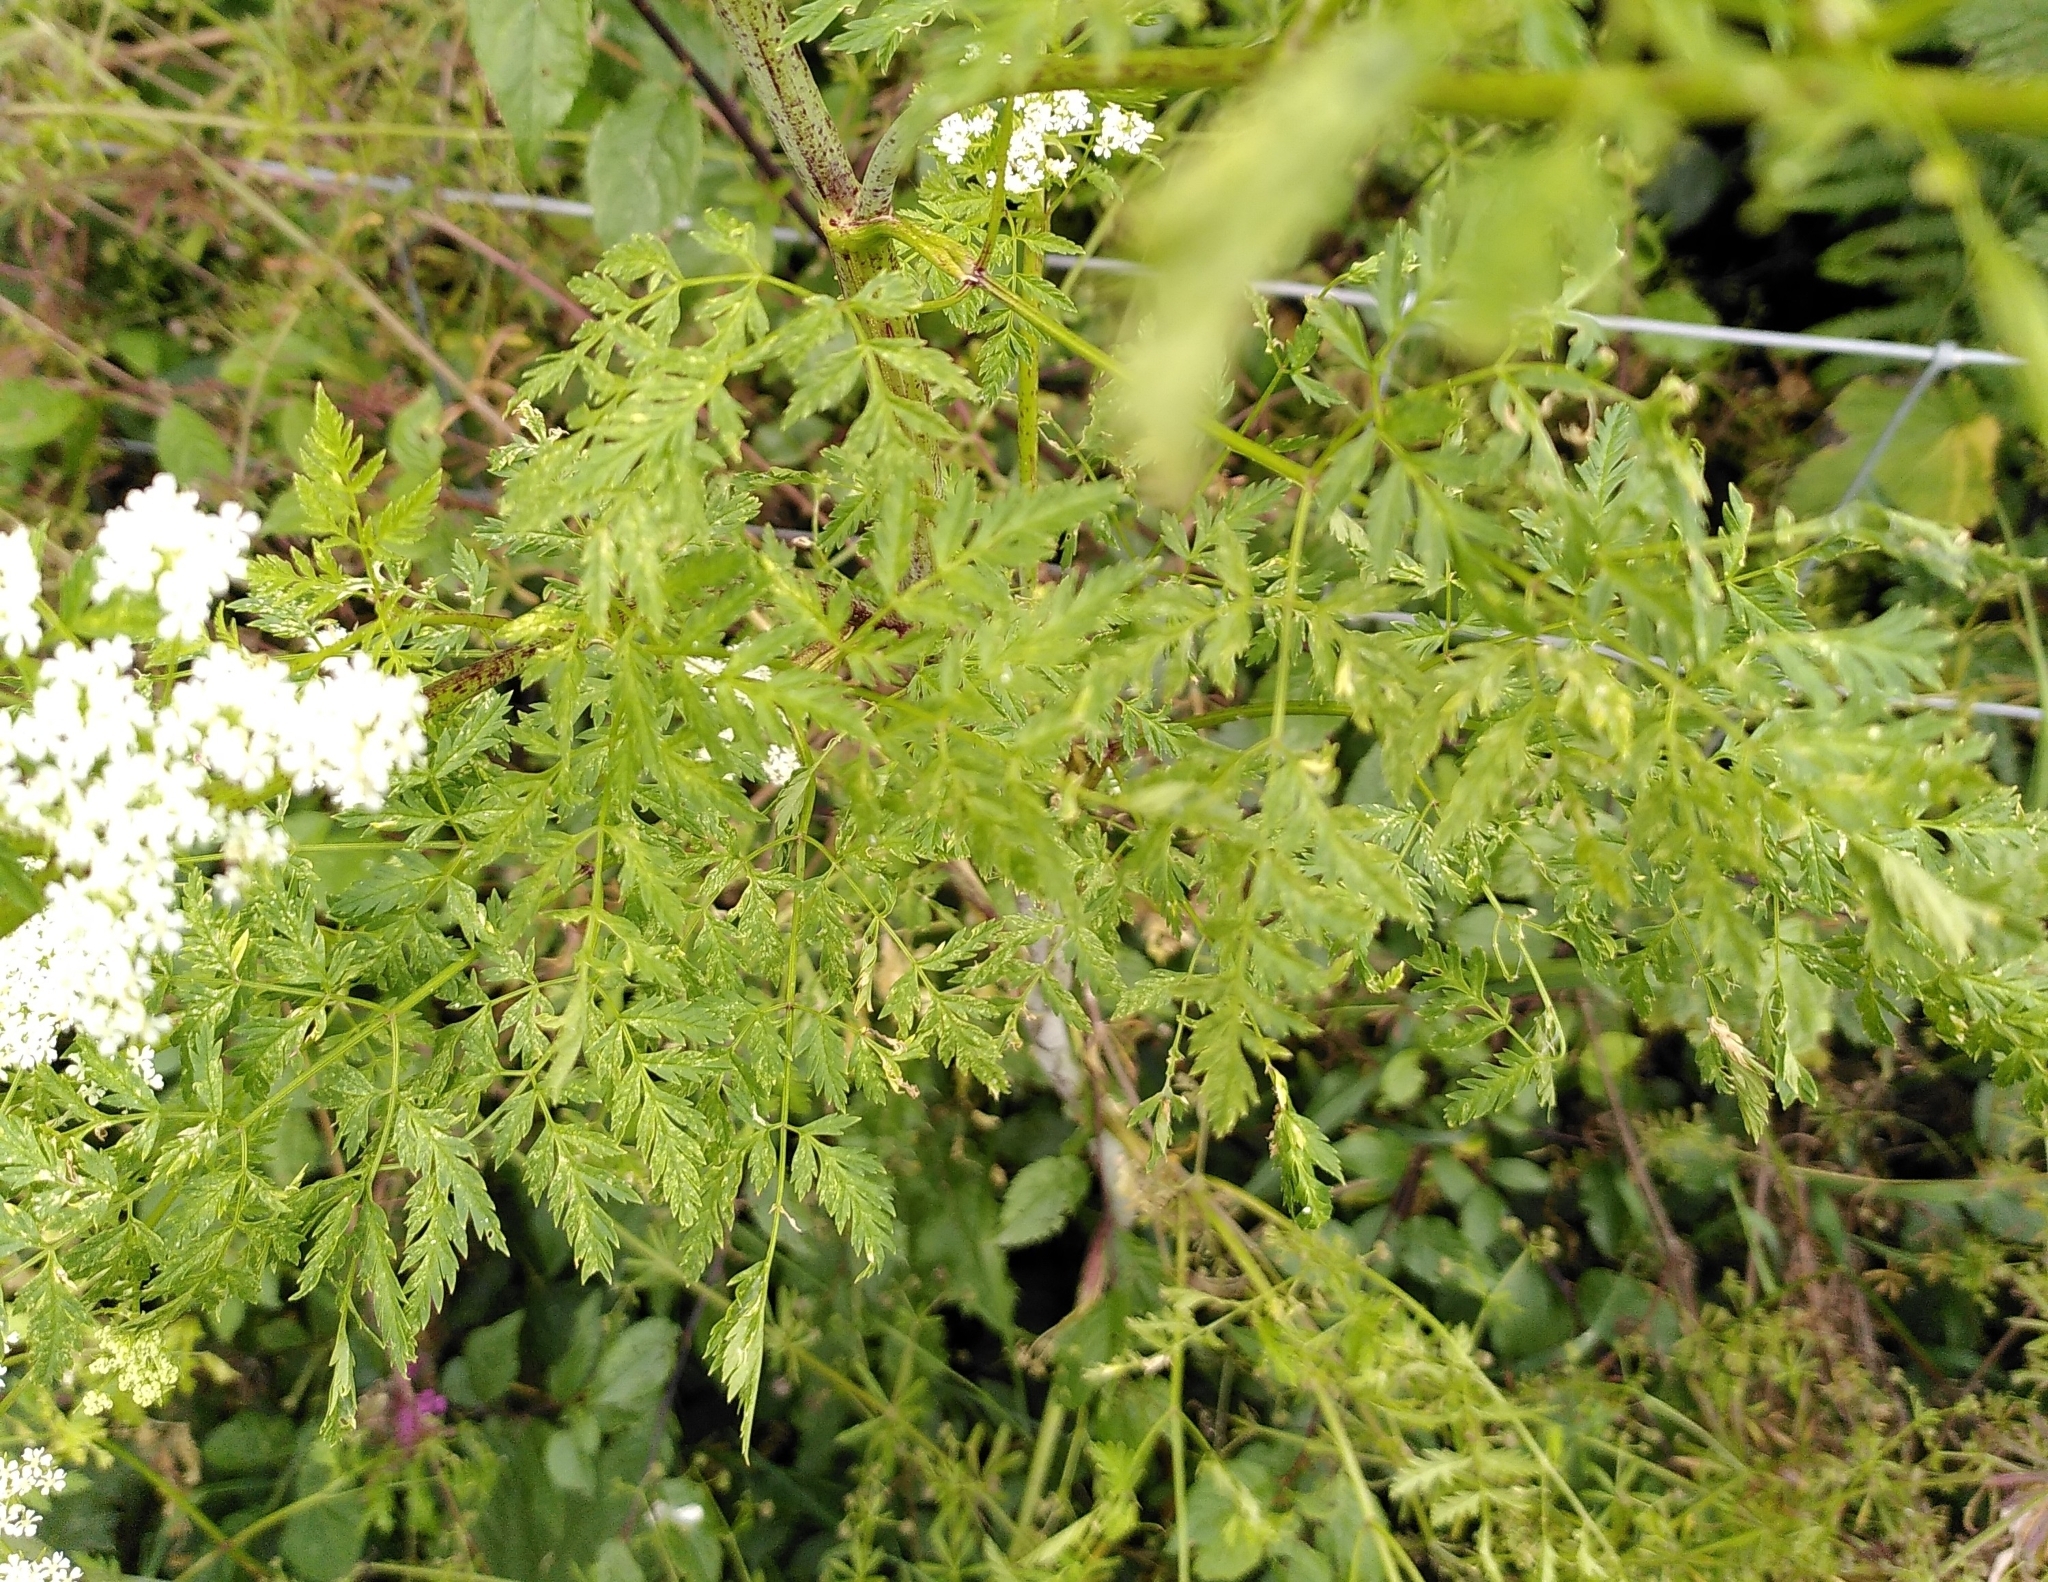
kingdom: Plantae
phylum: Tracheophyta
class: Magnoliopsida
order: Apiales
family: Apiaceae
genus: Conium
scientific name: Conium maculatum
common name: Hemlock
